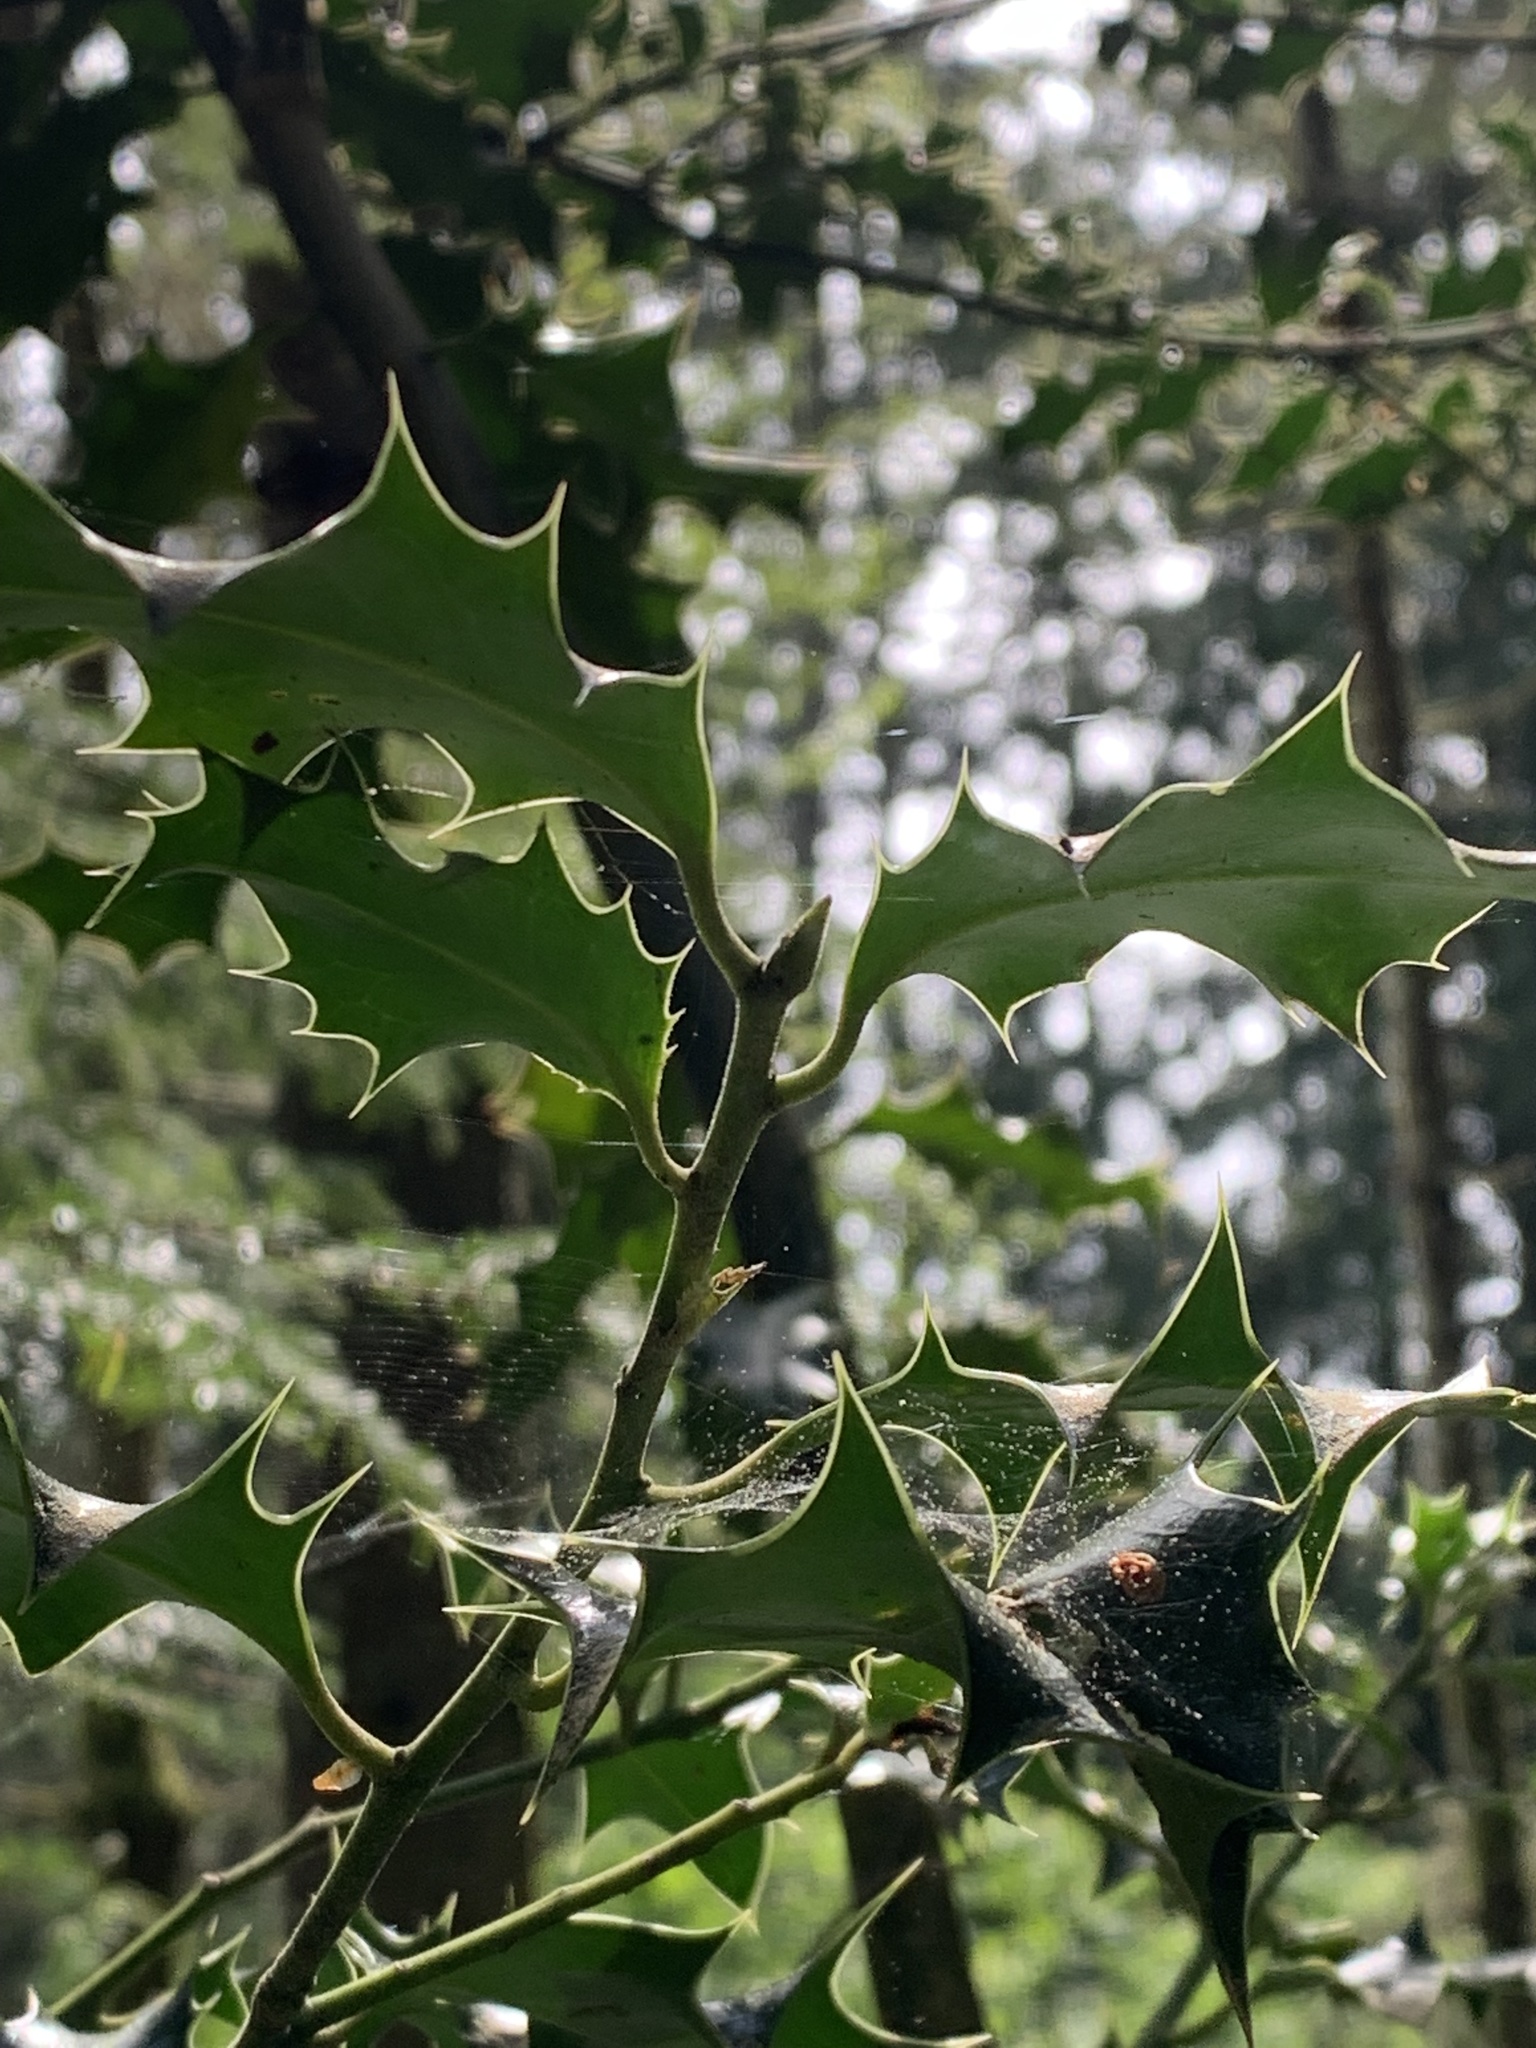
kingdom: Plantae
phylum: Tracheophyta
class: Magnoliopsida
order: Aquifoliales
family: Aquifoliaceae
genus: Ilex
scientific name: Ilex aquifolium
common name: English holly
